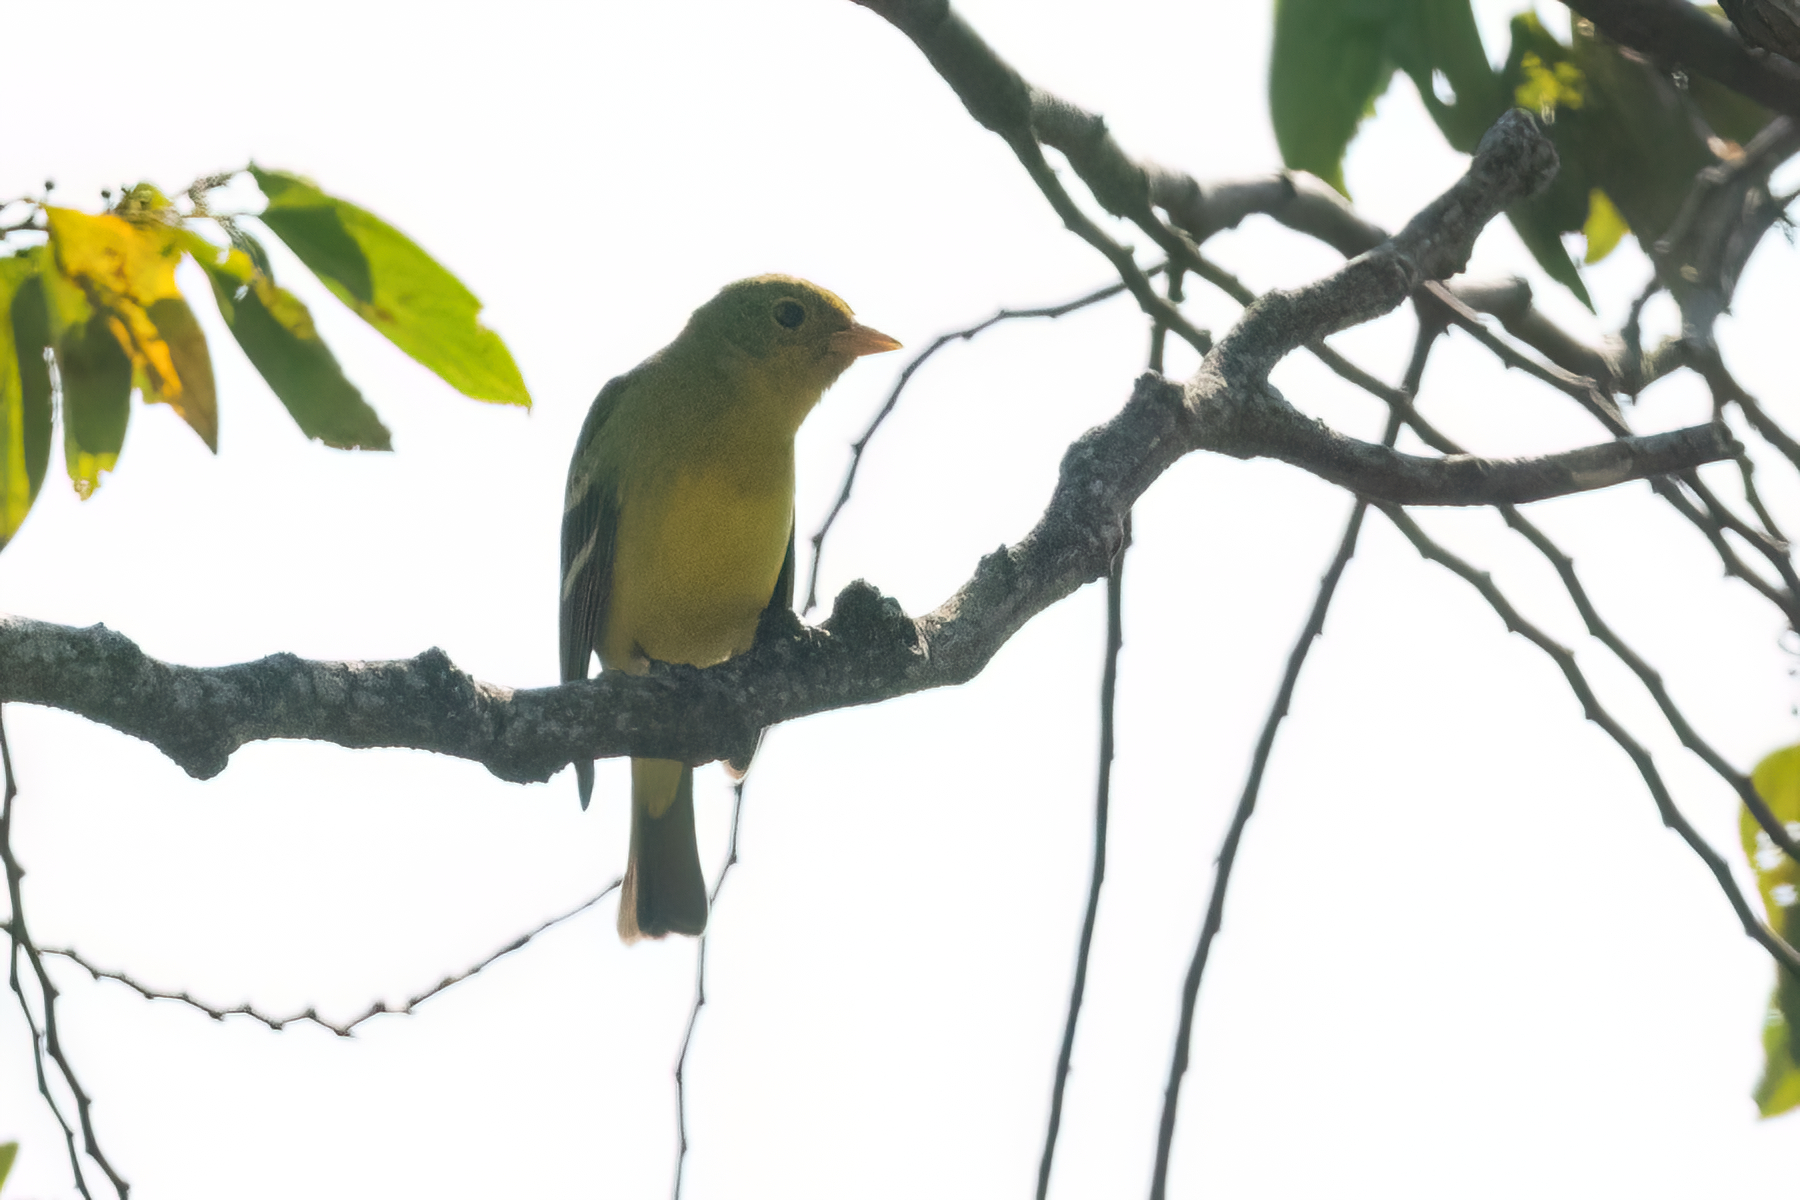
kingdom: Animalia
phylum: Chordata
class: Aves
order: Passeriformes
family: Cardinalidae
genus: Piranga
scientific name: Piranga ludoviciana
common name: Western tanager
